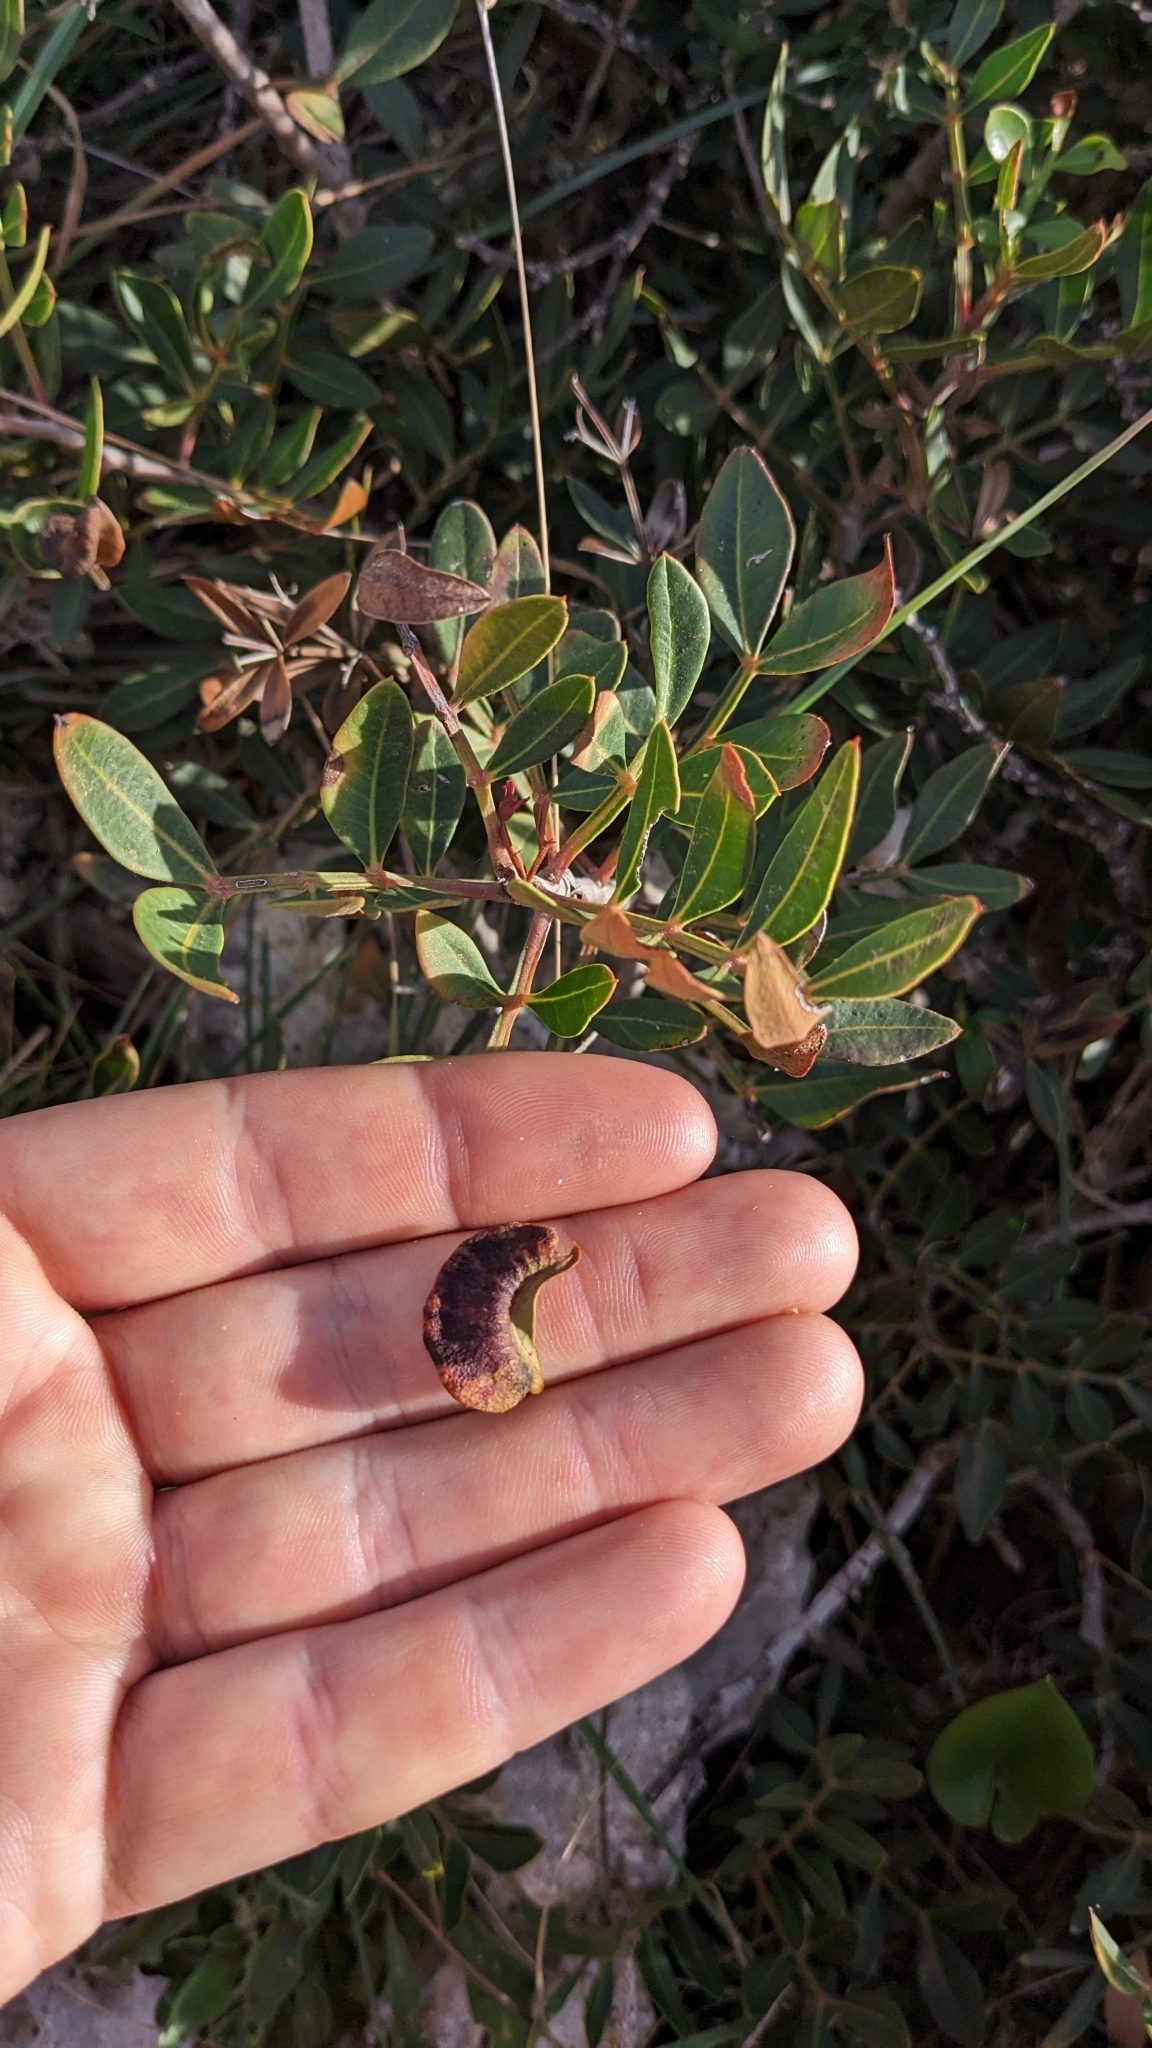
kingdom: Animalia
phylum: Arthropoda
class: Insecta
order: Hemiptera
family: Aphididae
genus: Aploneura
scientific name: Aploneura lentisci
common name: Mealy grass root aphid
